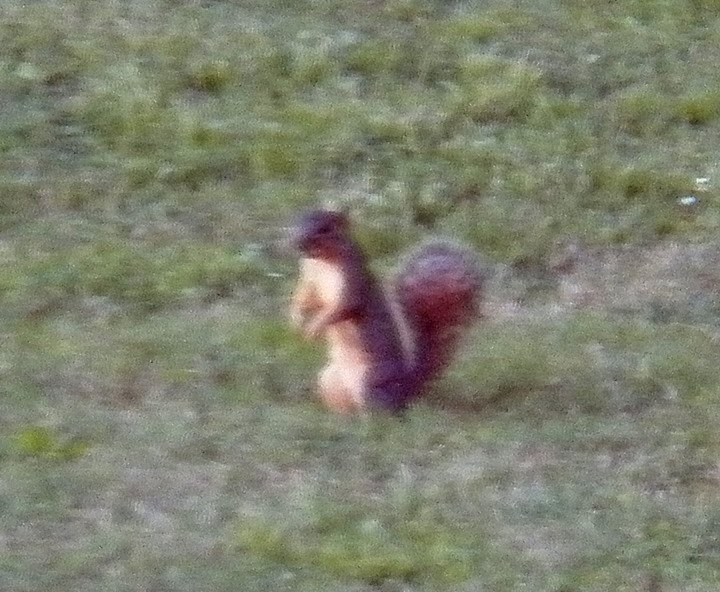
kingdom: Animalia
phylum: Chordata
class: Mammalia
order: Rodentia
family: Sciuridae
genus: Sciurus
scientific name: Sciurus niger
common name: Fox squirrel
